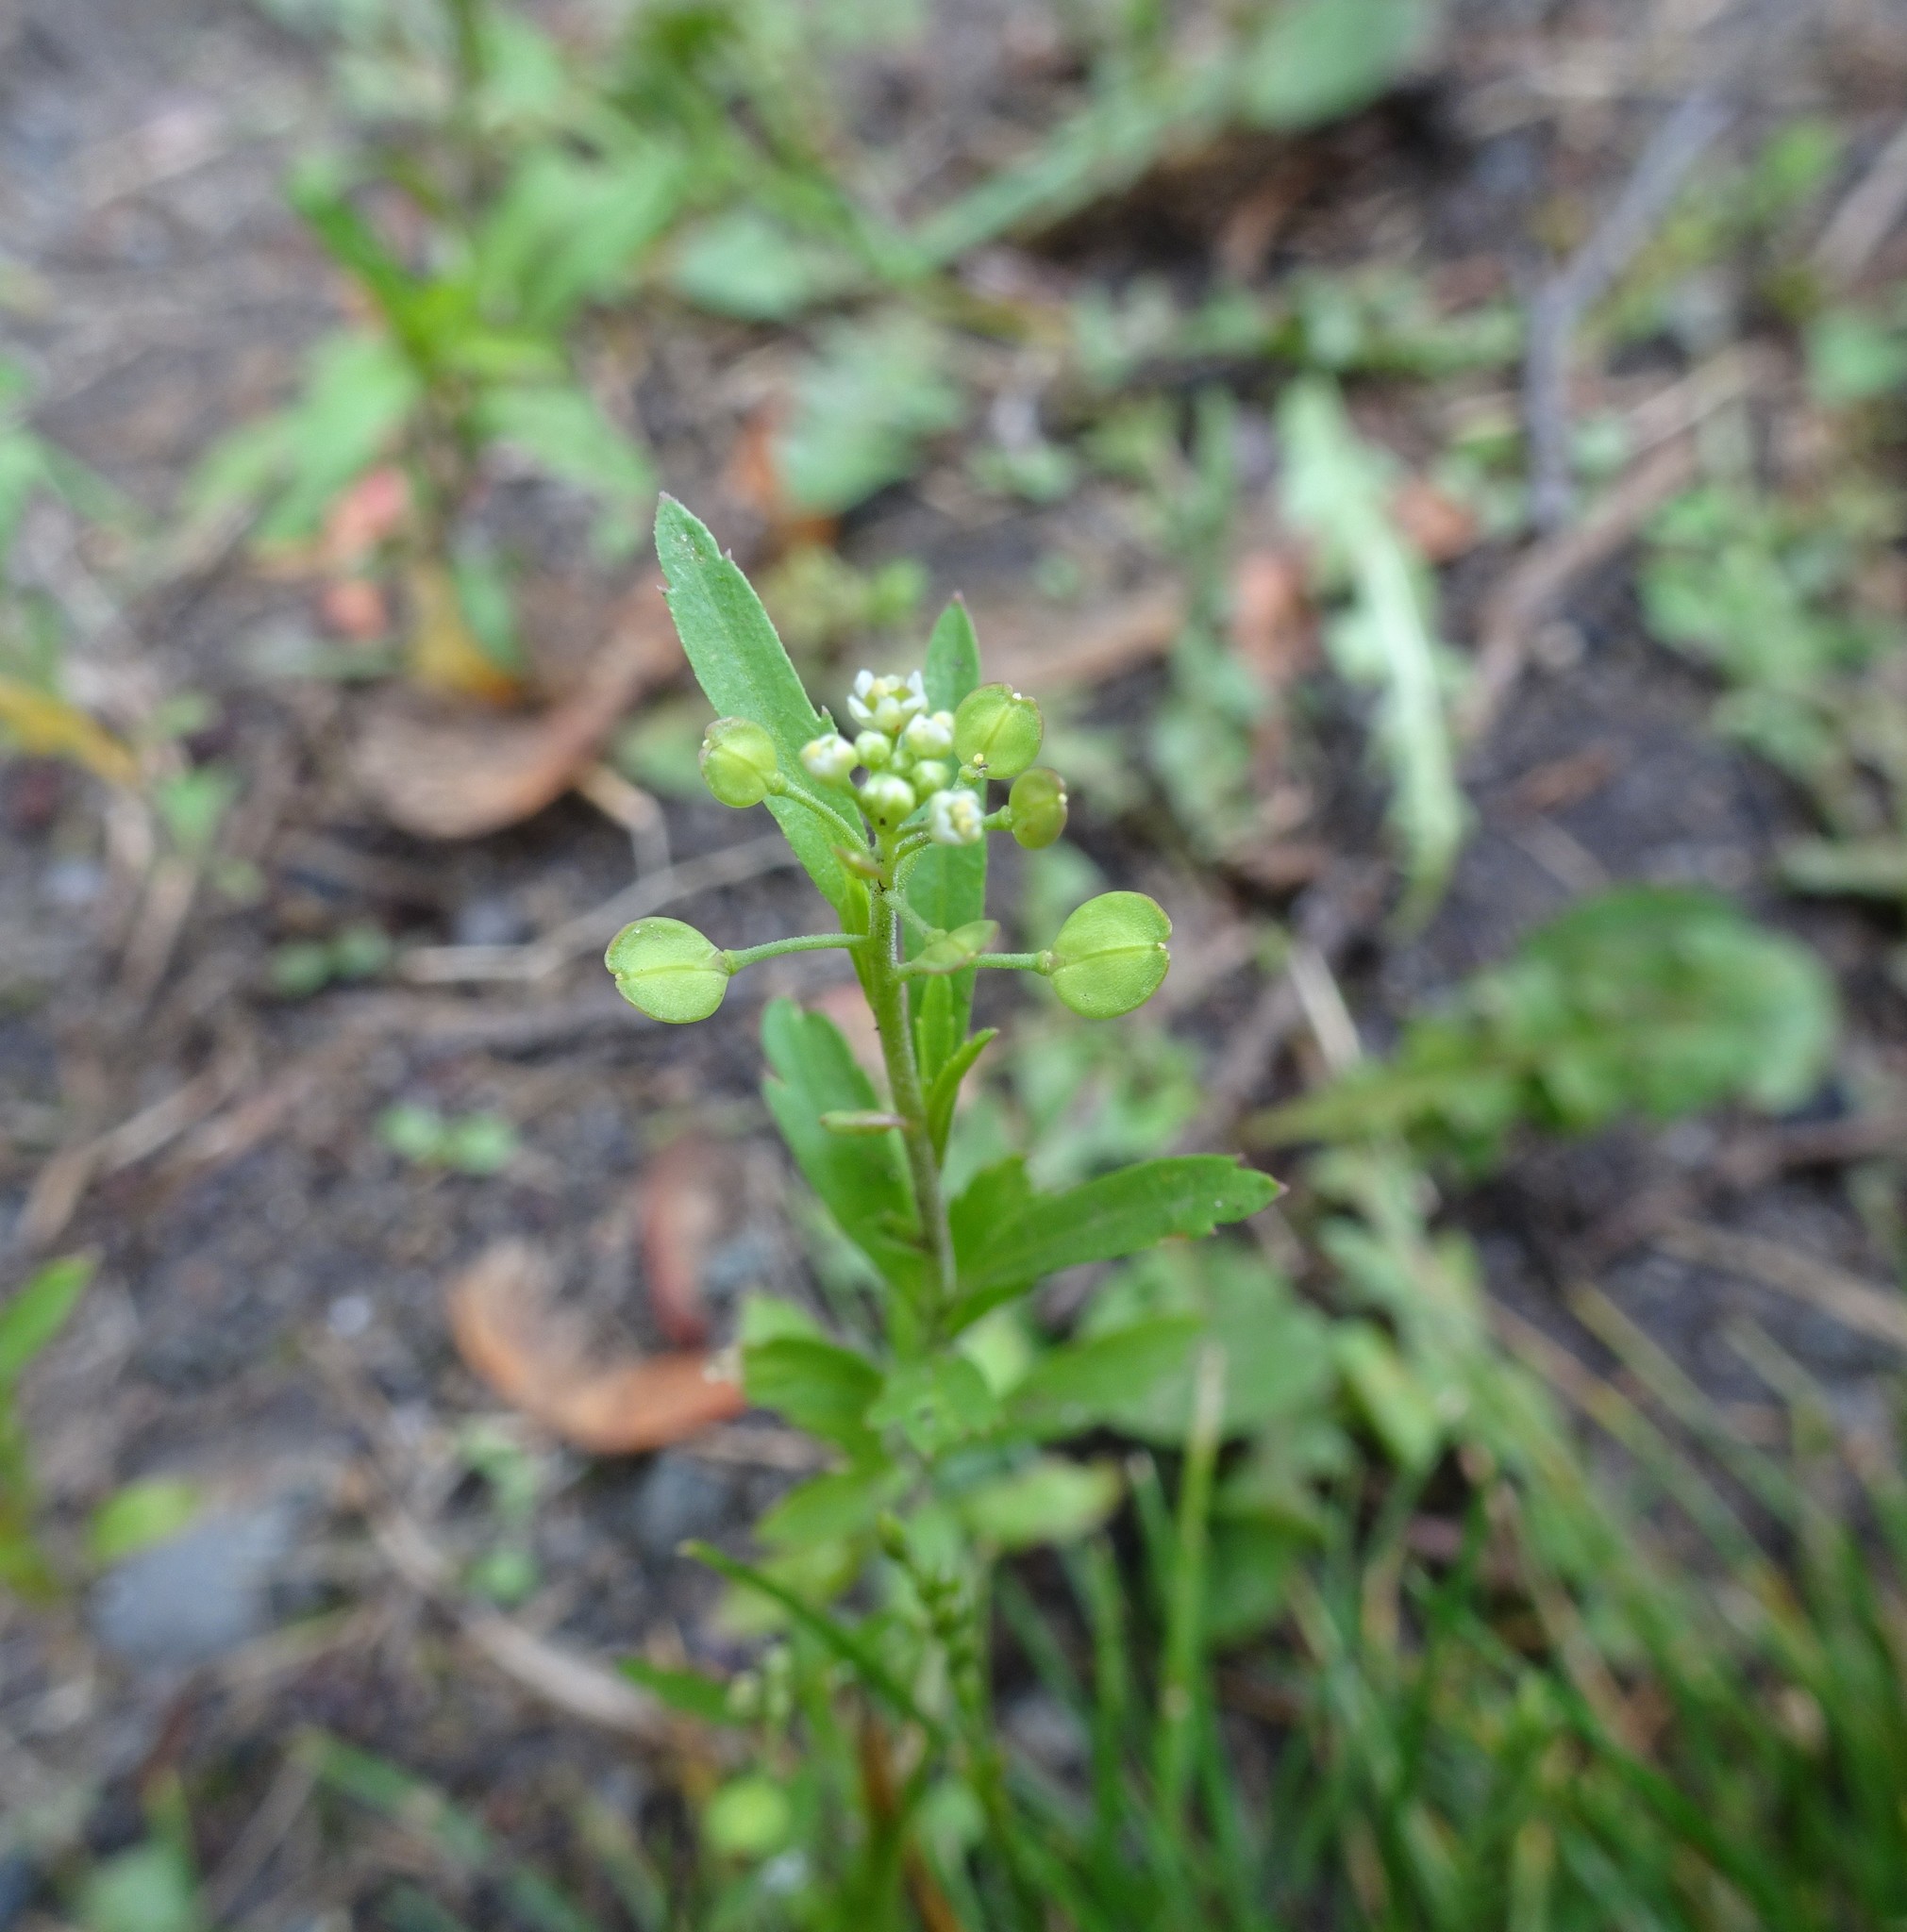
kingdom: Plantae
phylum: Tracheophyta
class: Magnoliopsida
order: Brassicales
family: Brassicaceae
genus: Lepidium
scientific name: Lepidium virginicum
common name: Least pepperwort
